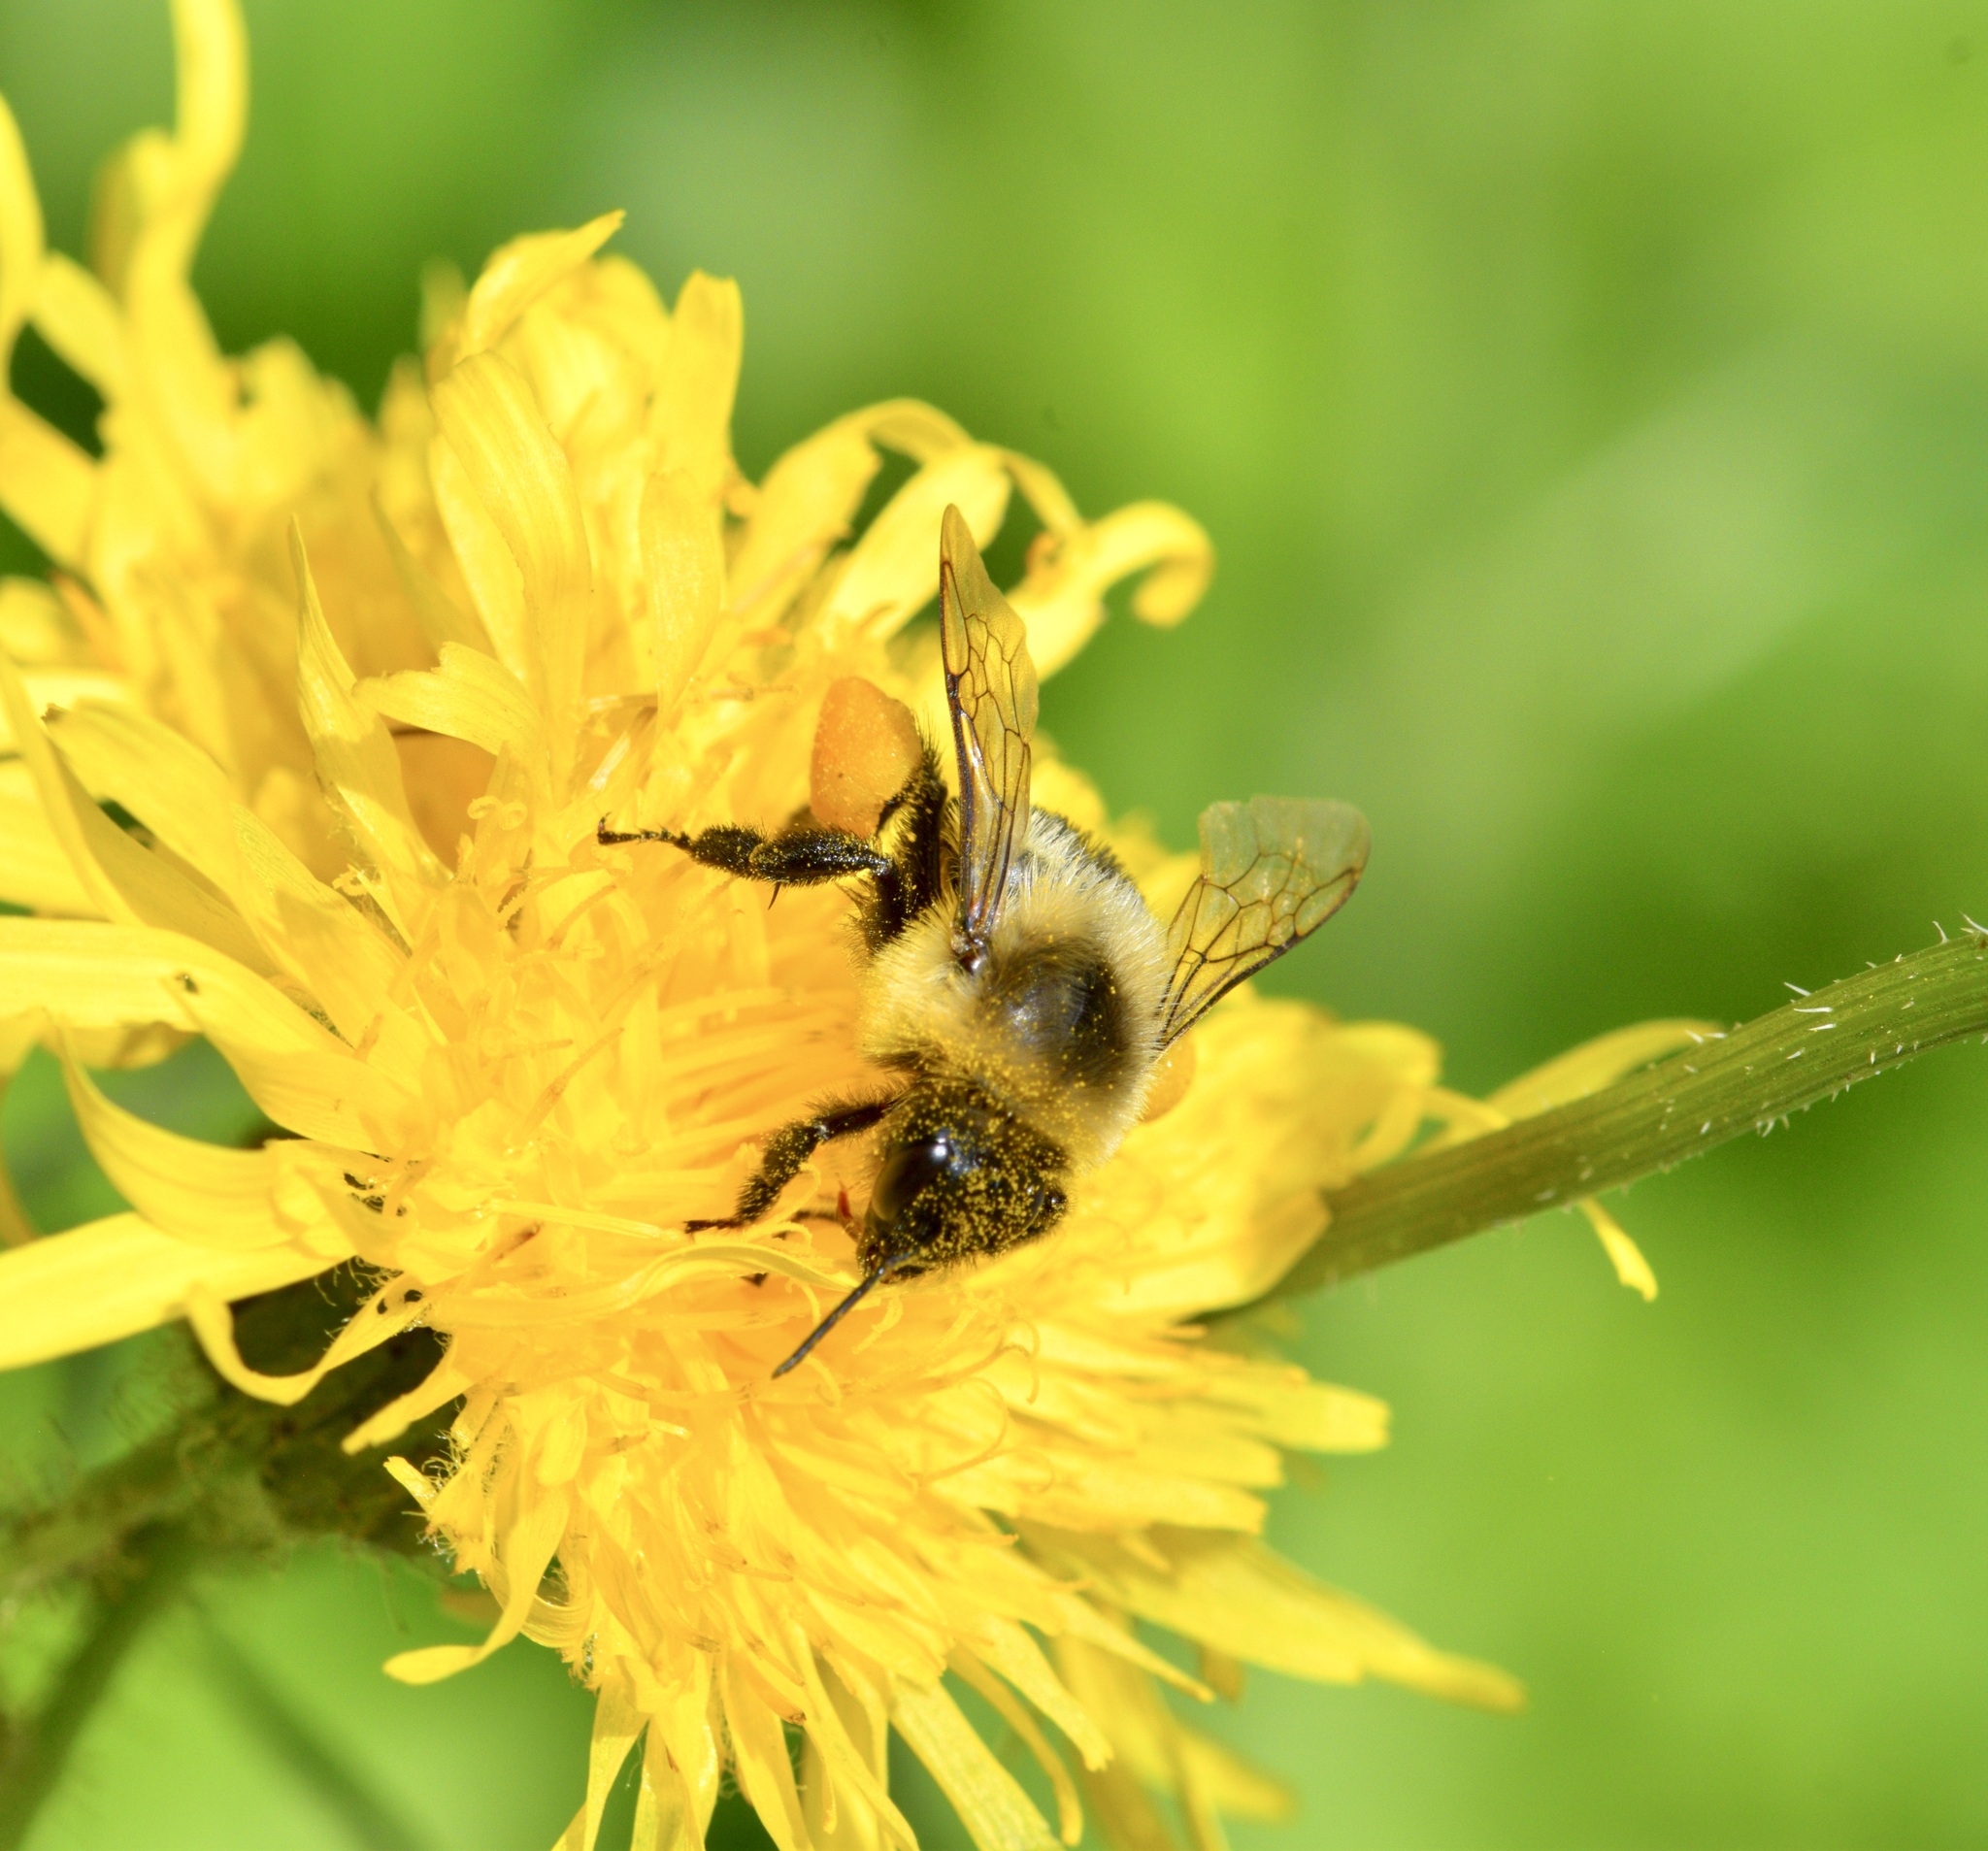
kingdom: Animalia
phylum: Arthropoda
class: Insecta
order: Hymenoptera
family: Apidae
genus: Bombus
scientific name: Bombus impatiens
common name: Common eastern bumble bee
